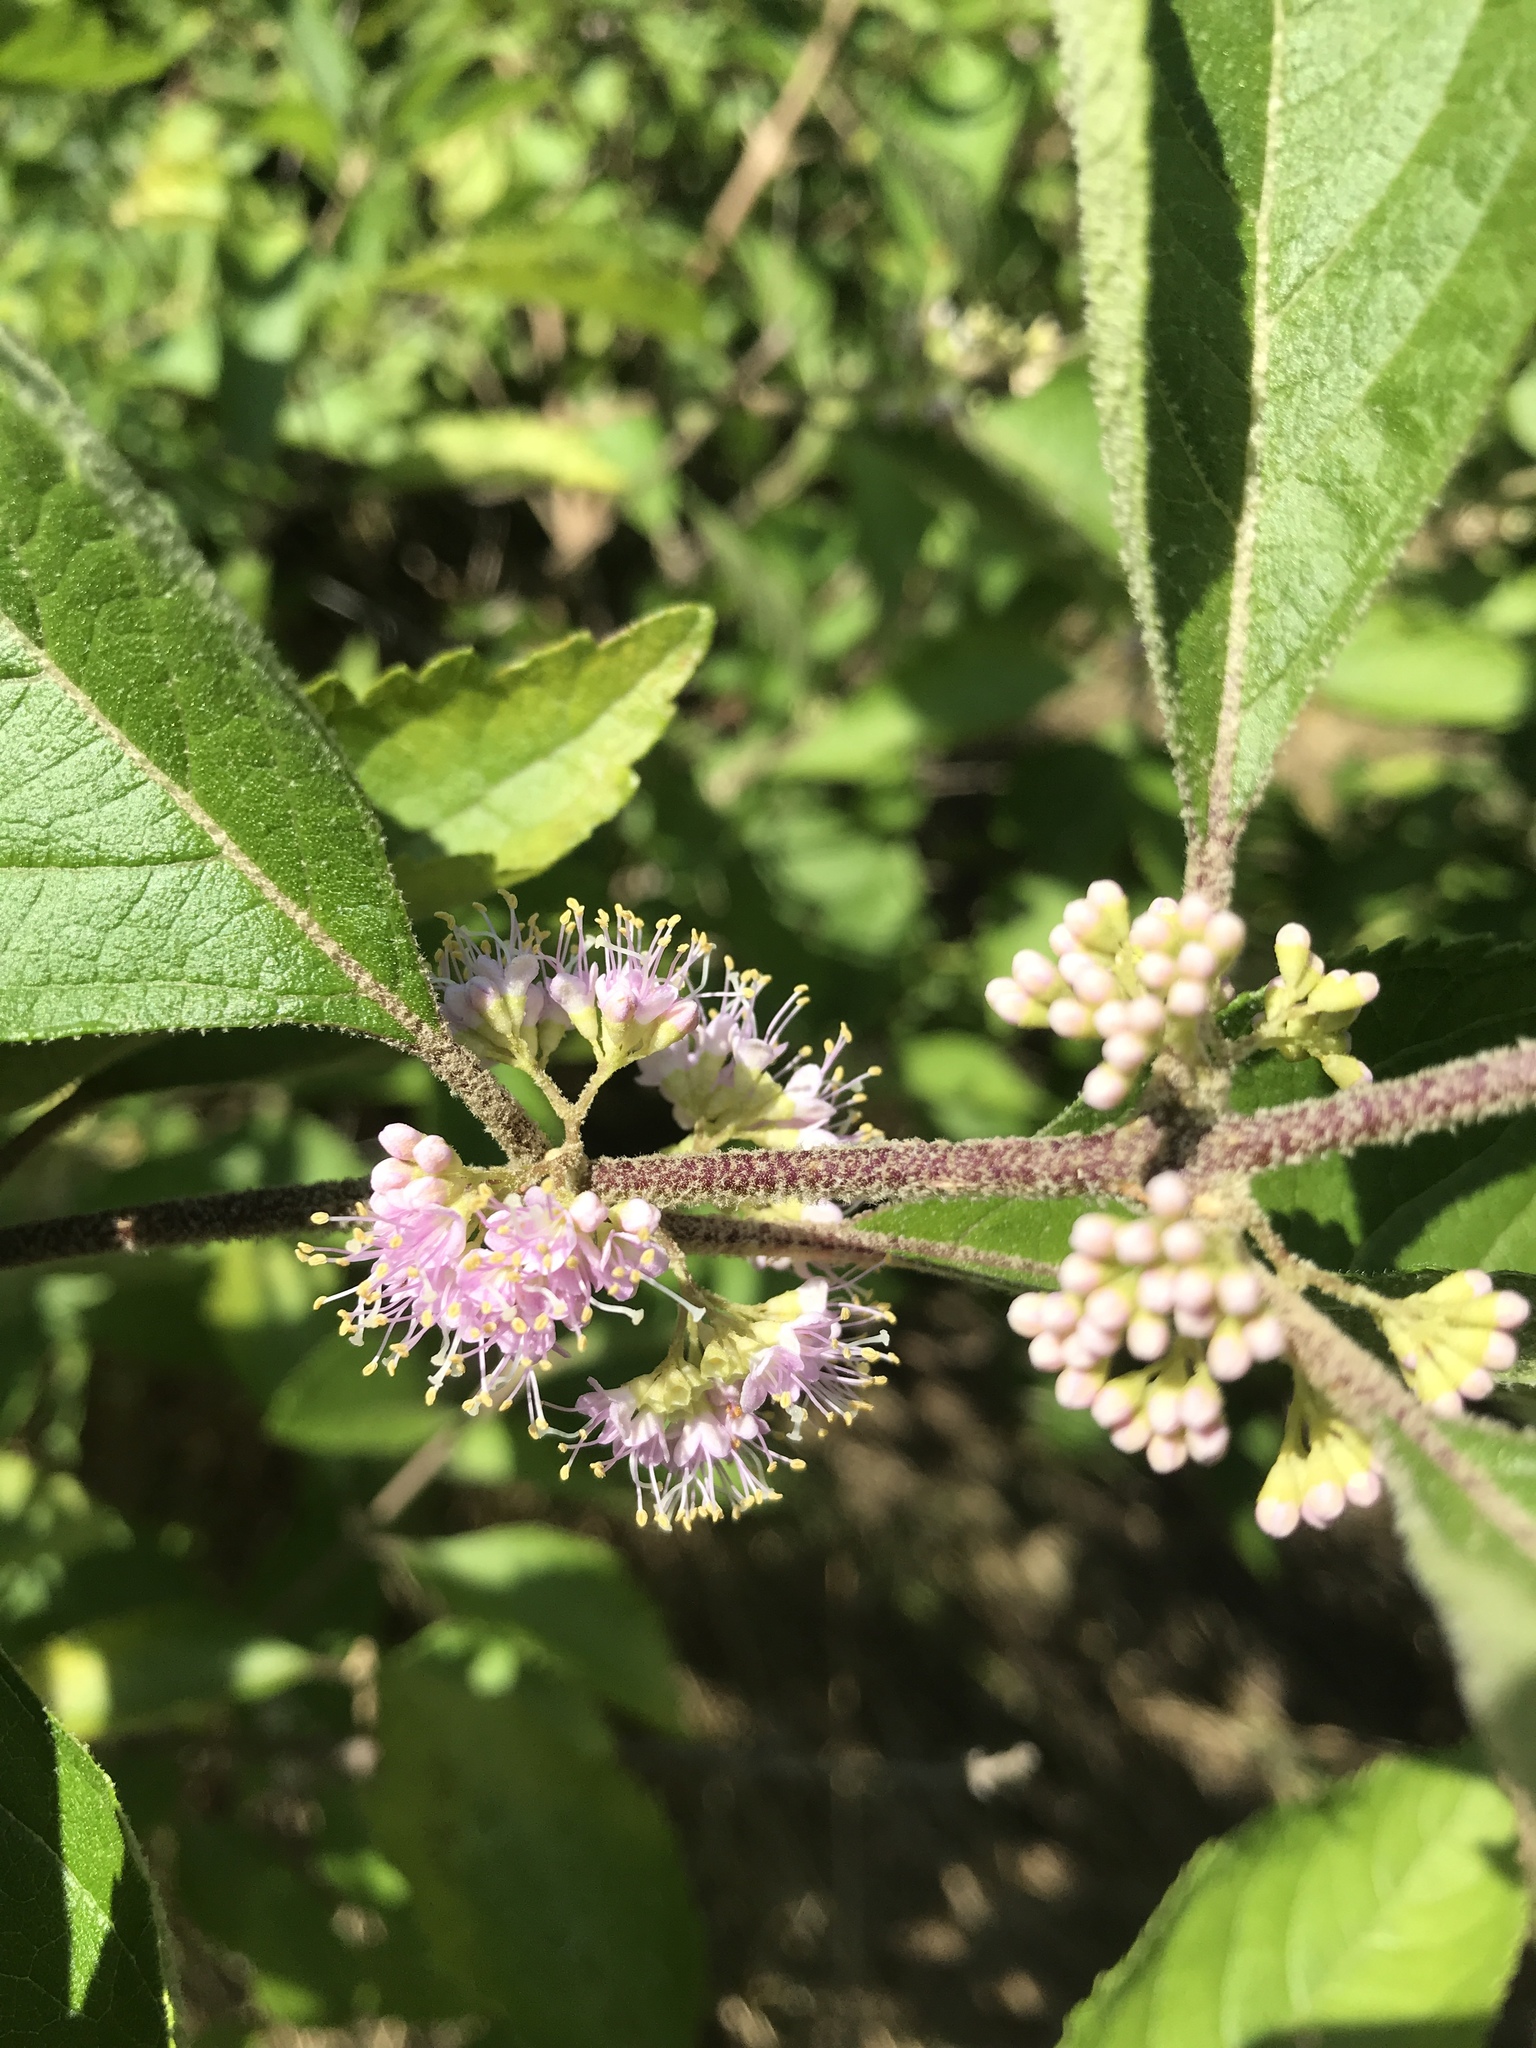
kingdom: Plantae
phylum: Tracheophyta
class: Magnoliopsida
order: Lamiales
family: Lamiaceae
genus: Callicarpa
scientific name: Callicarpa americana
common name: American beautyberry
